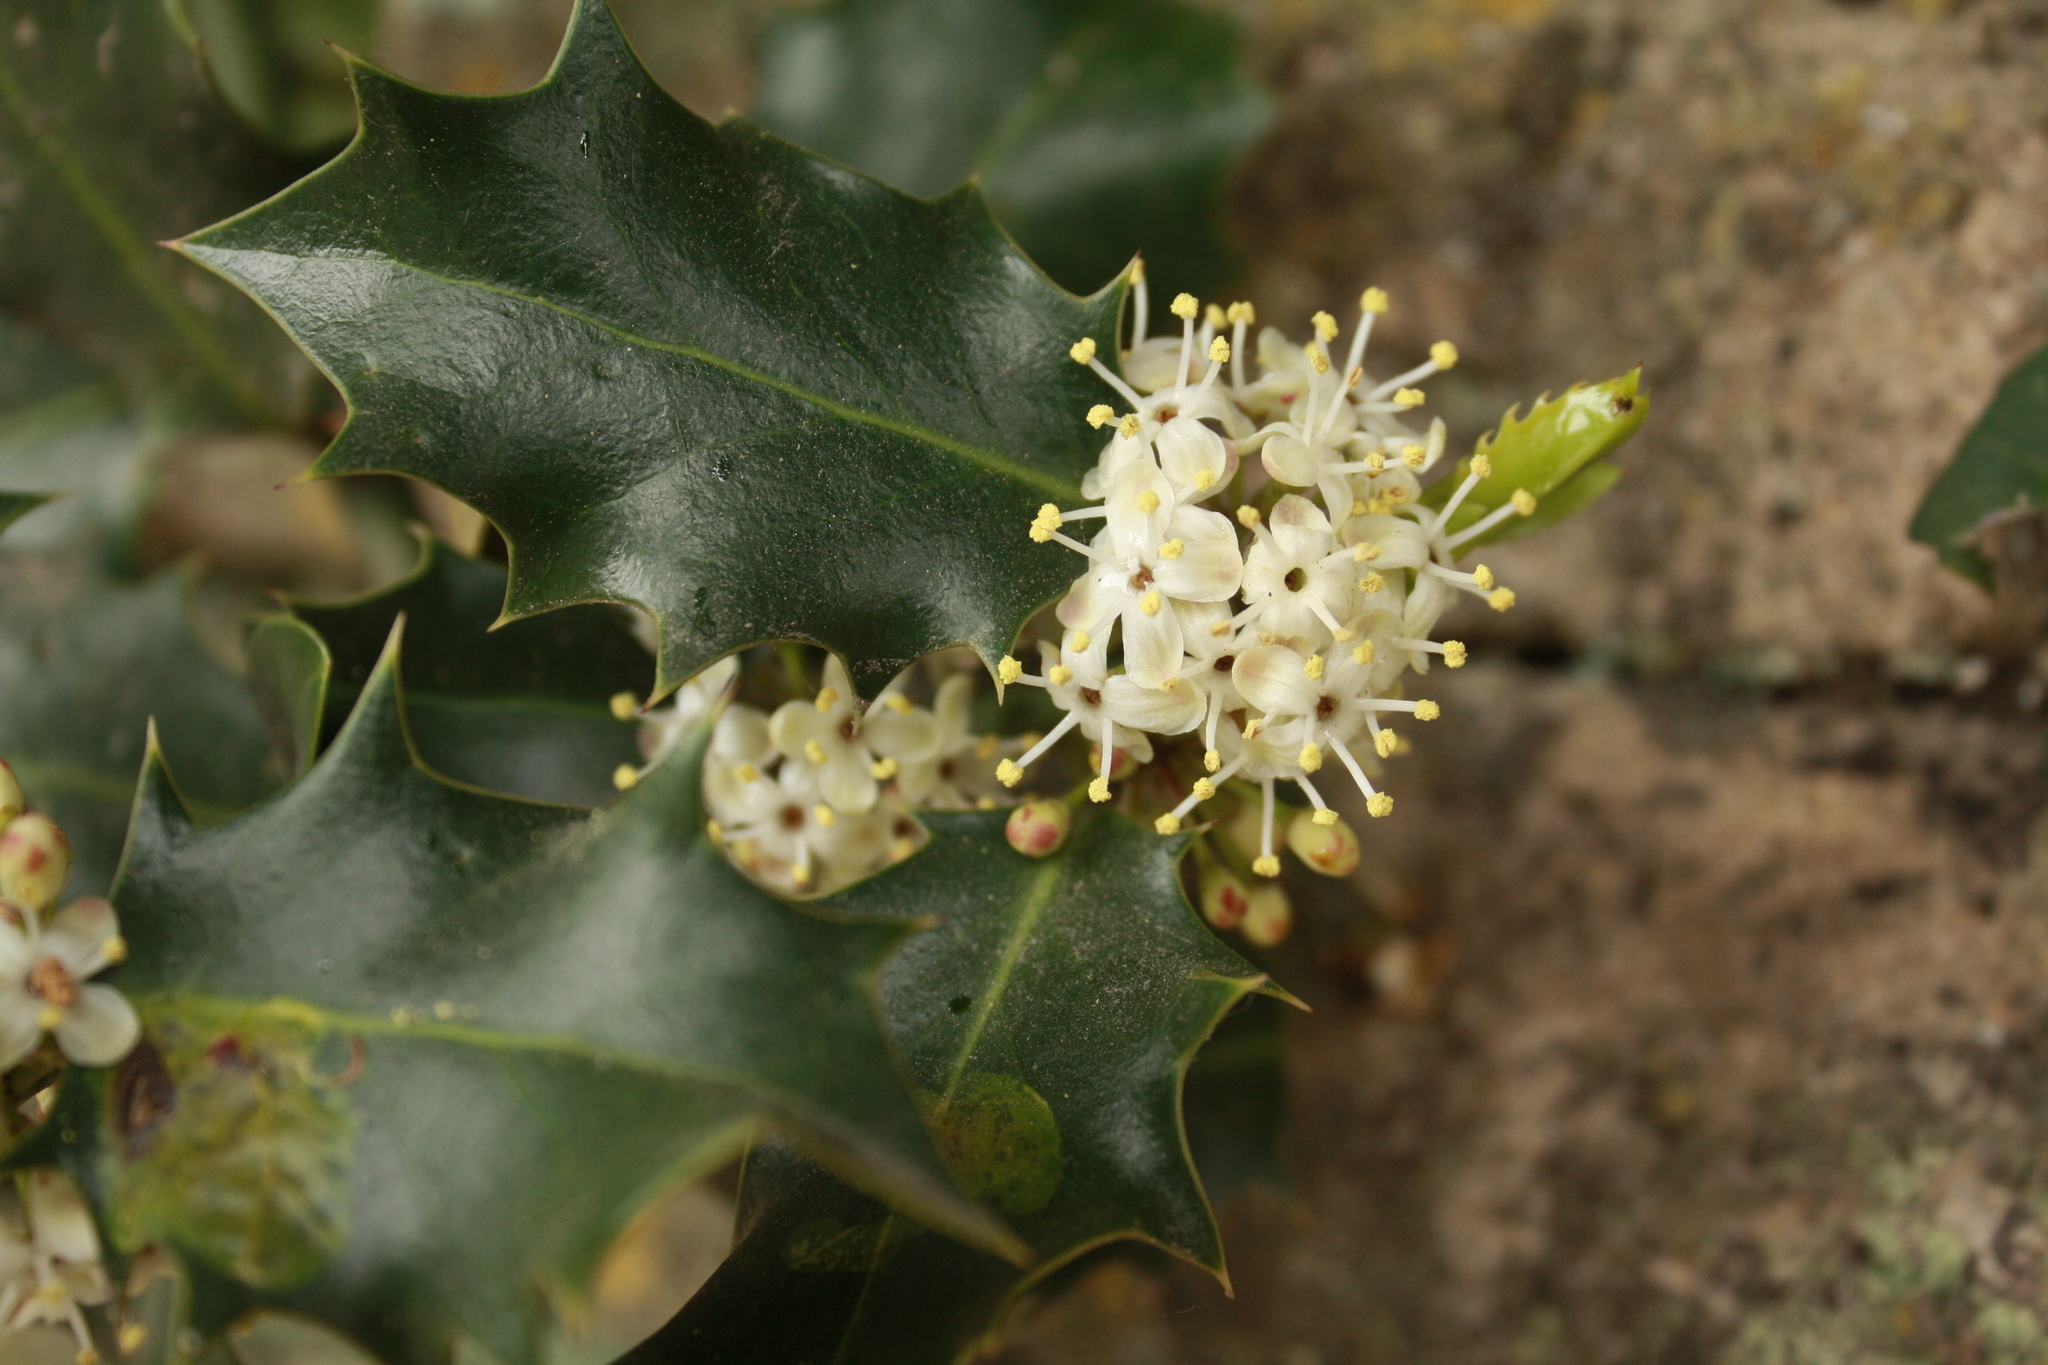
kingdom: Plantae
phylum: Tracheophyta
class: Magnoliopsida
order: Aquifoliales
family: Aquifoliaceae
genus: Ilex
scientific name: Ilex aquifolium
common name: English holly
